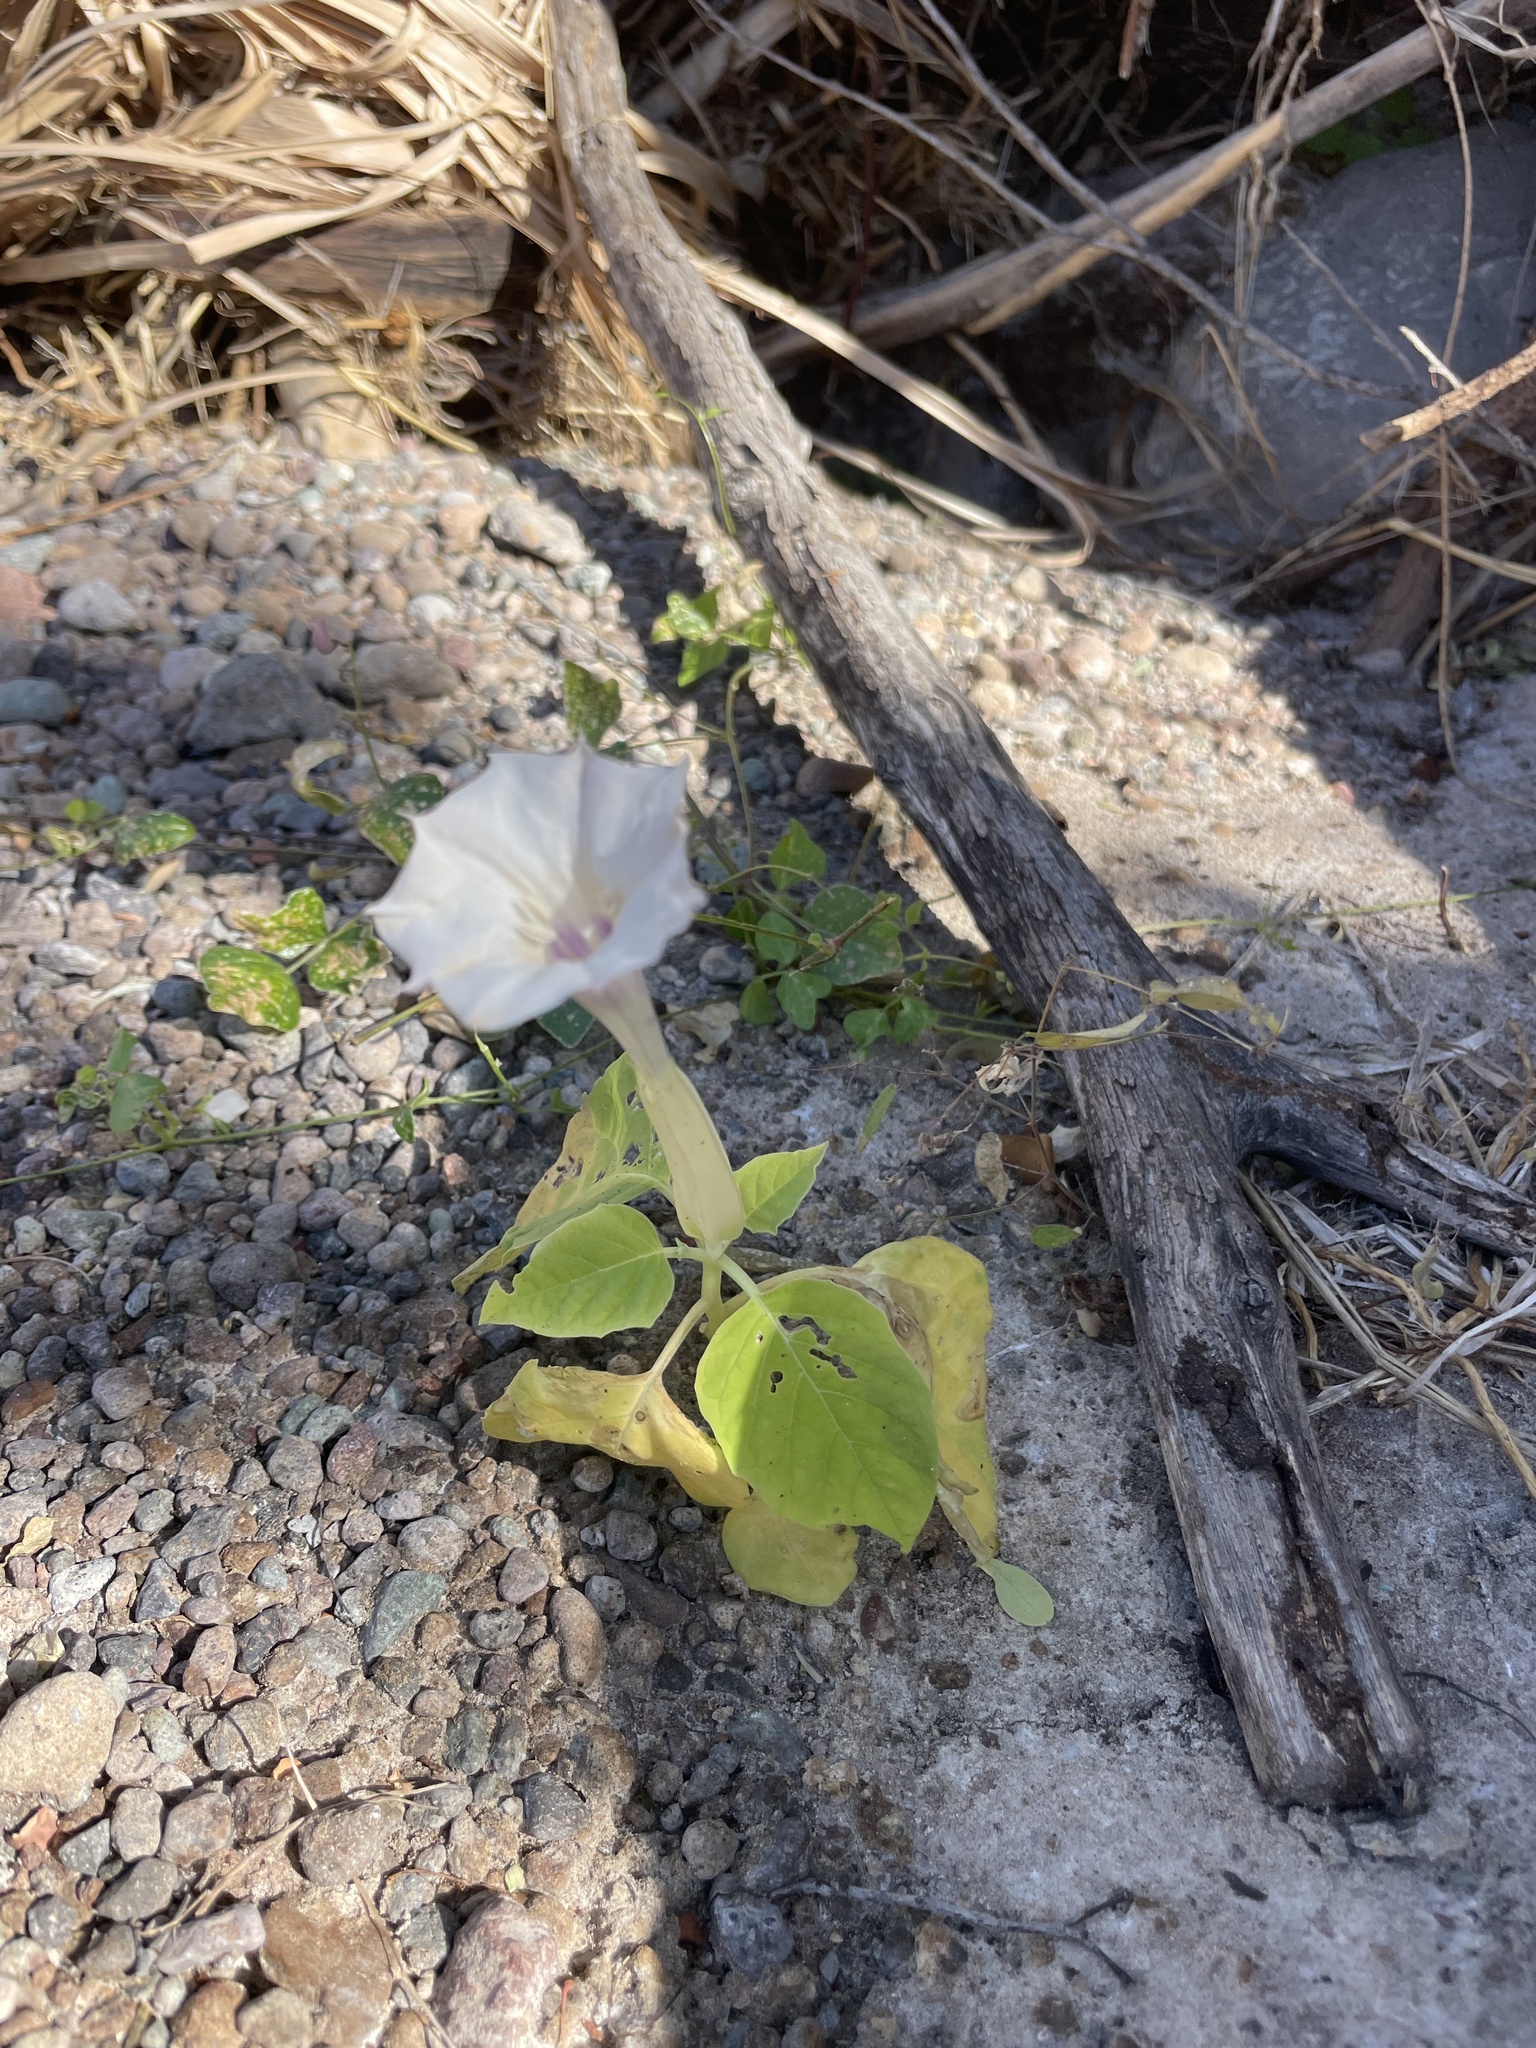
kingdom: Plantae
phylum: Tracheophyta
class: Magnoliopsida
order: Solanales
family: Solanaceae
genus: Datura
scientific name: Datura discolor
